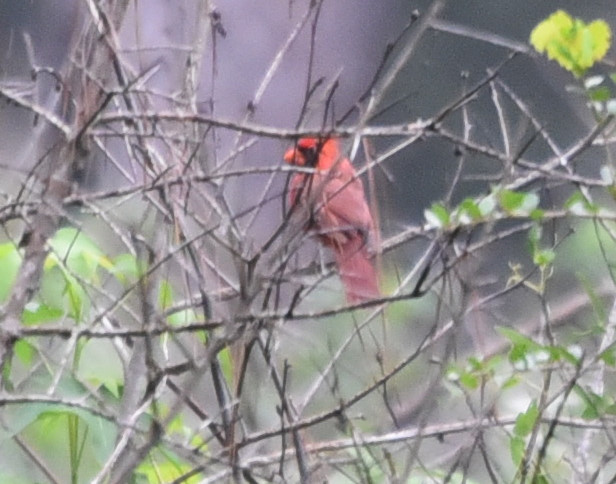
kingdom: Animalia
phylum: Chordata
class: Aves
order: Passeriformes
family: Cardinalidae
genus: Cardinalis
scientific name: Cardinalis cardinalis
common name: Northern cardinal
